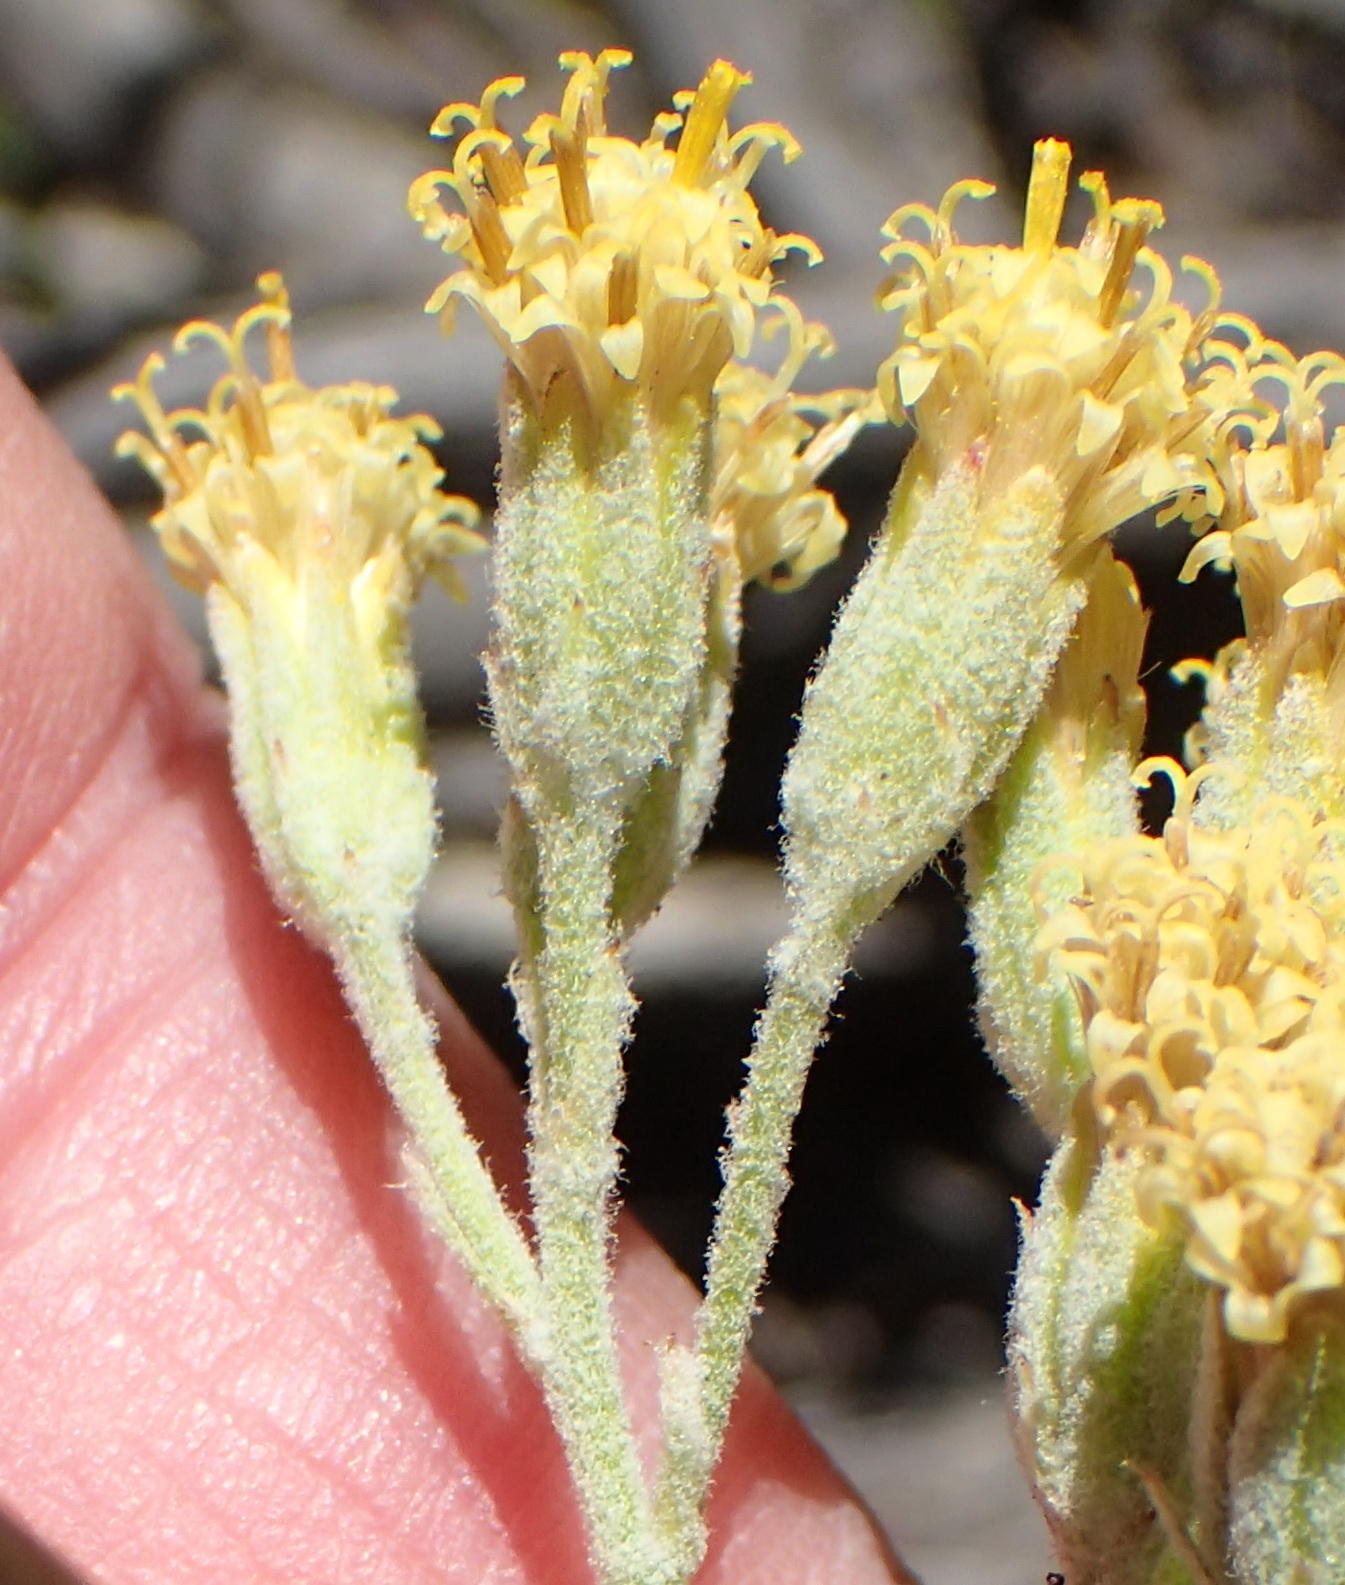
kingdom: Plantae
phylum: Tracheophyta
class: Magnoliopsida
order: Asterales
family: Asteraceae
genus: Senecio
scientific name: Senecio pauciflosculosus
